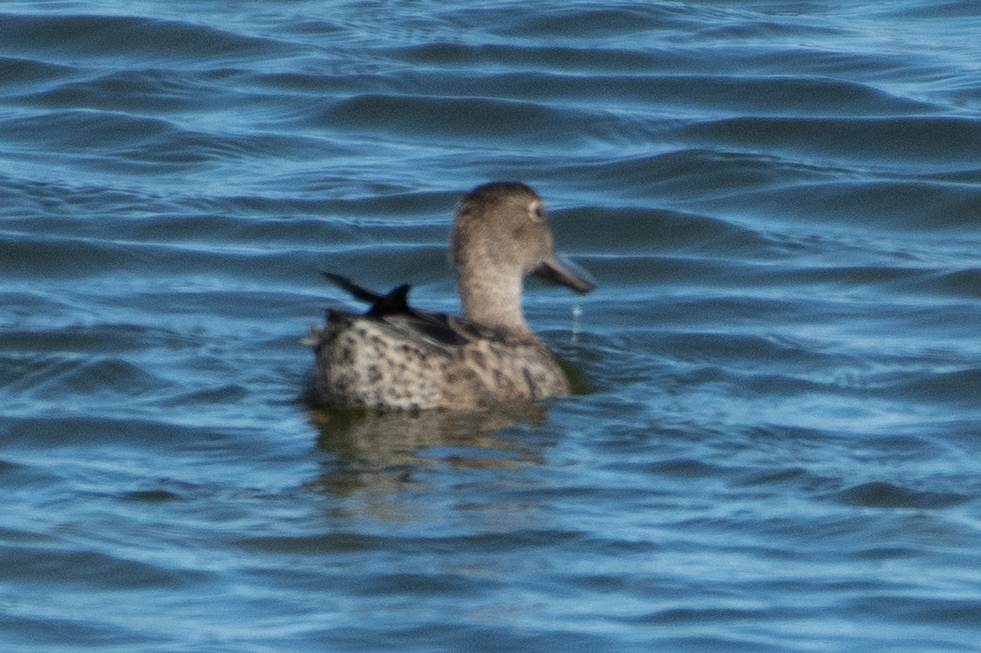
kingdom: Animalia
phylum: Chordata
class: Aves
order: Anseriformes
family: Anatidae
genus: Spatula
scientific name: Spatula cyanoptera
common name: Cinnamon teal
